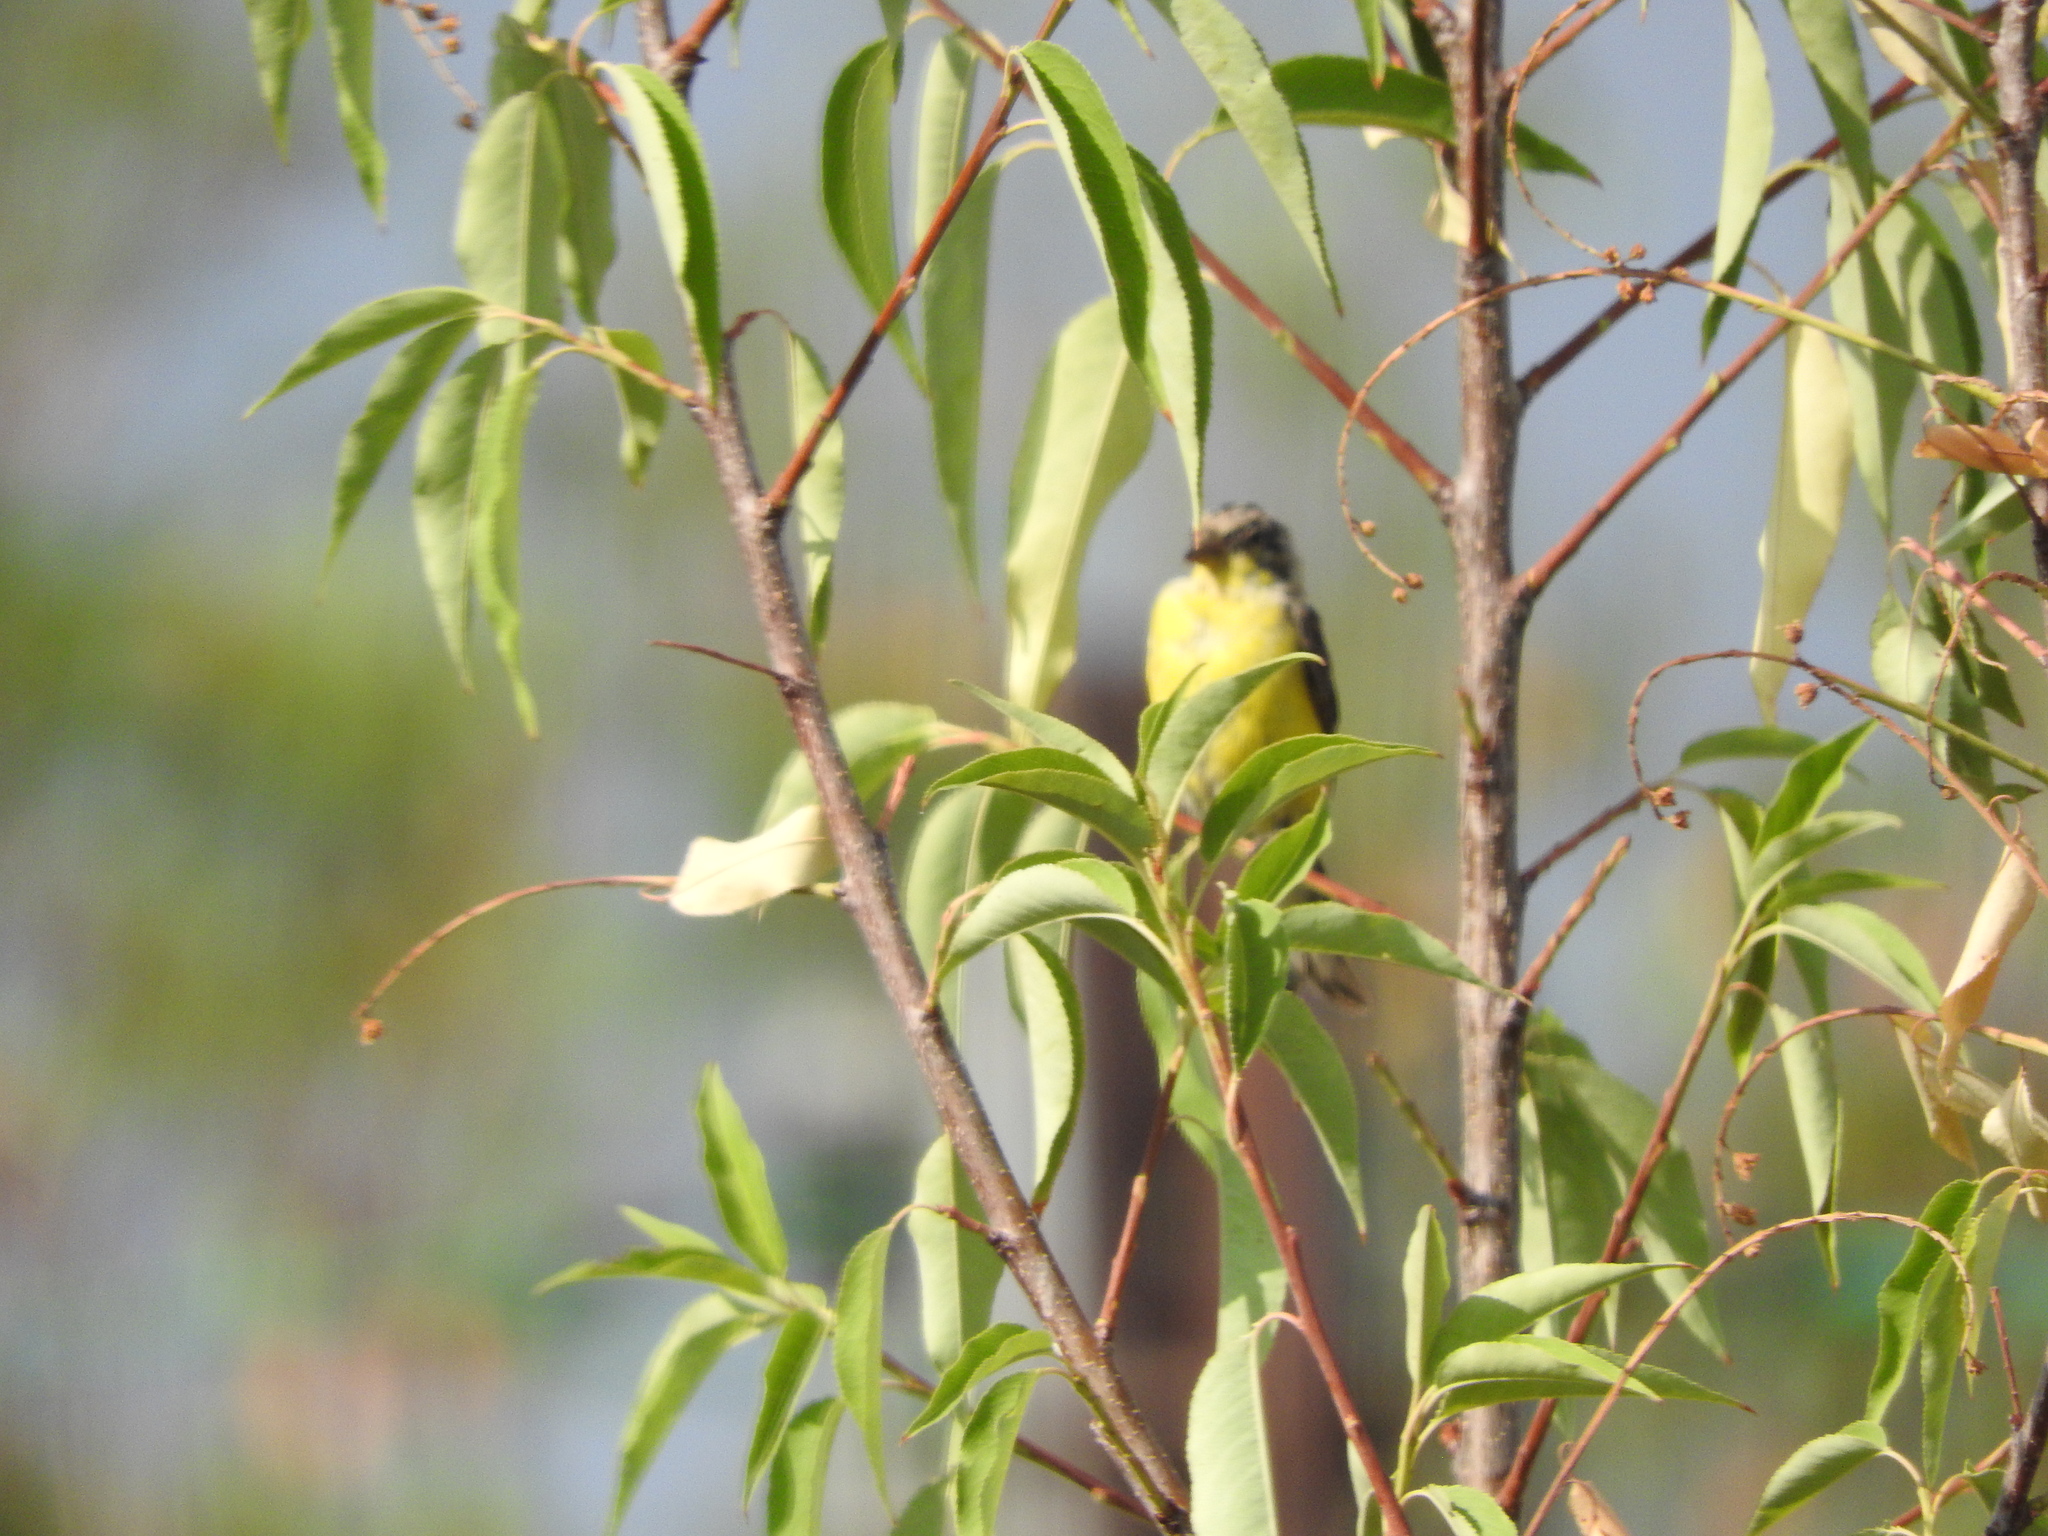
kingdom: Animalia
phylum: Chordata
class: Aves
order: Passeriformes
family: Fringillidae
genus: Spinus
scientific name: Spinus psaltria
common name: Lesser goldfinch
